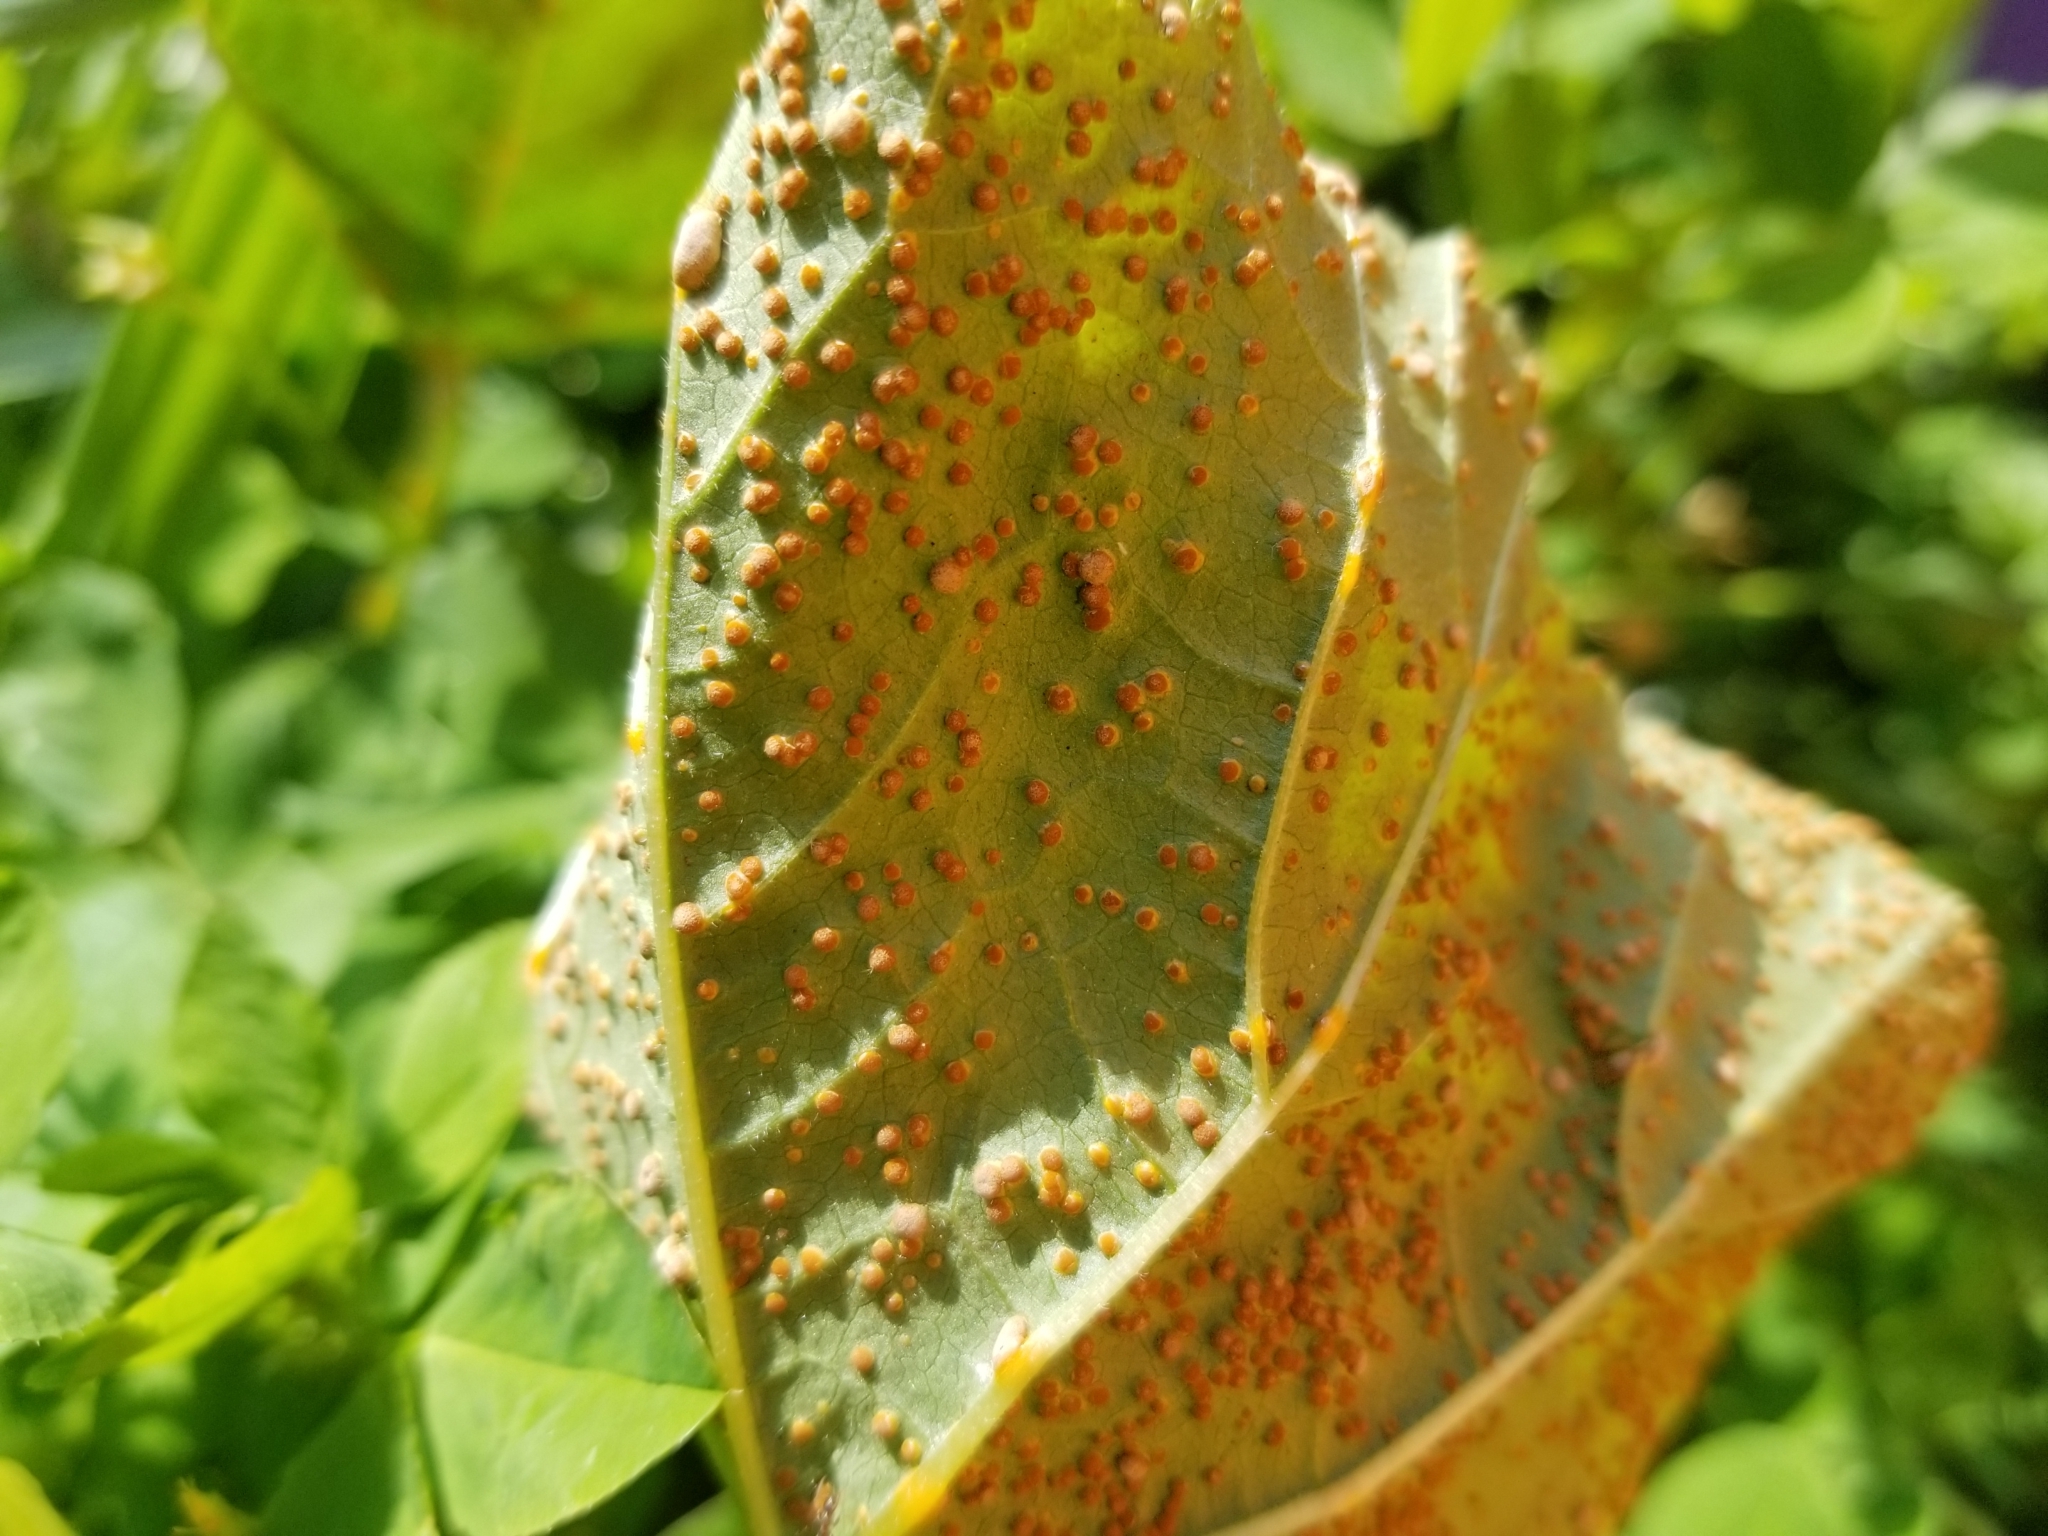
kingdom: Fungi
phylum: Basidiomycota
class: Pucciniomycetes
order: Pucciniales
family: Pucciniaceae
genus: Puccinia
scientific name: Puccinia malvacearum
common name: Hollyhock rust
